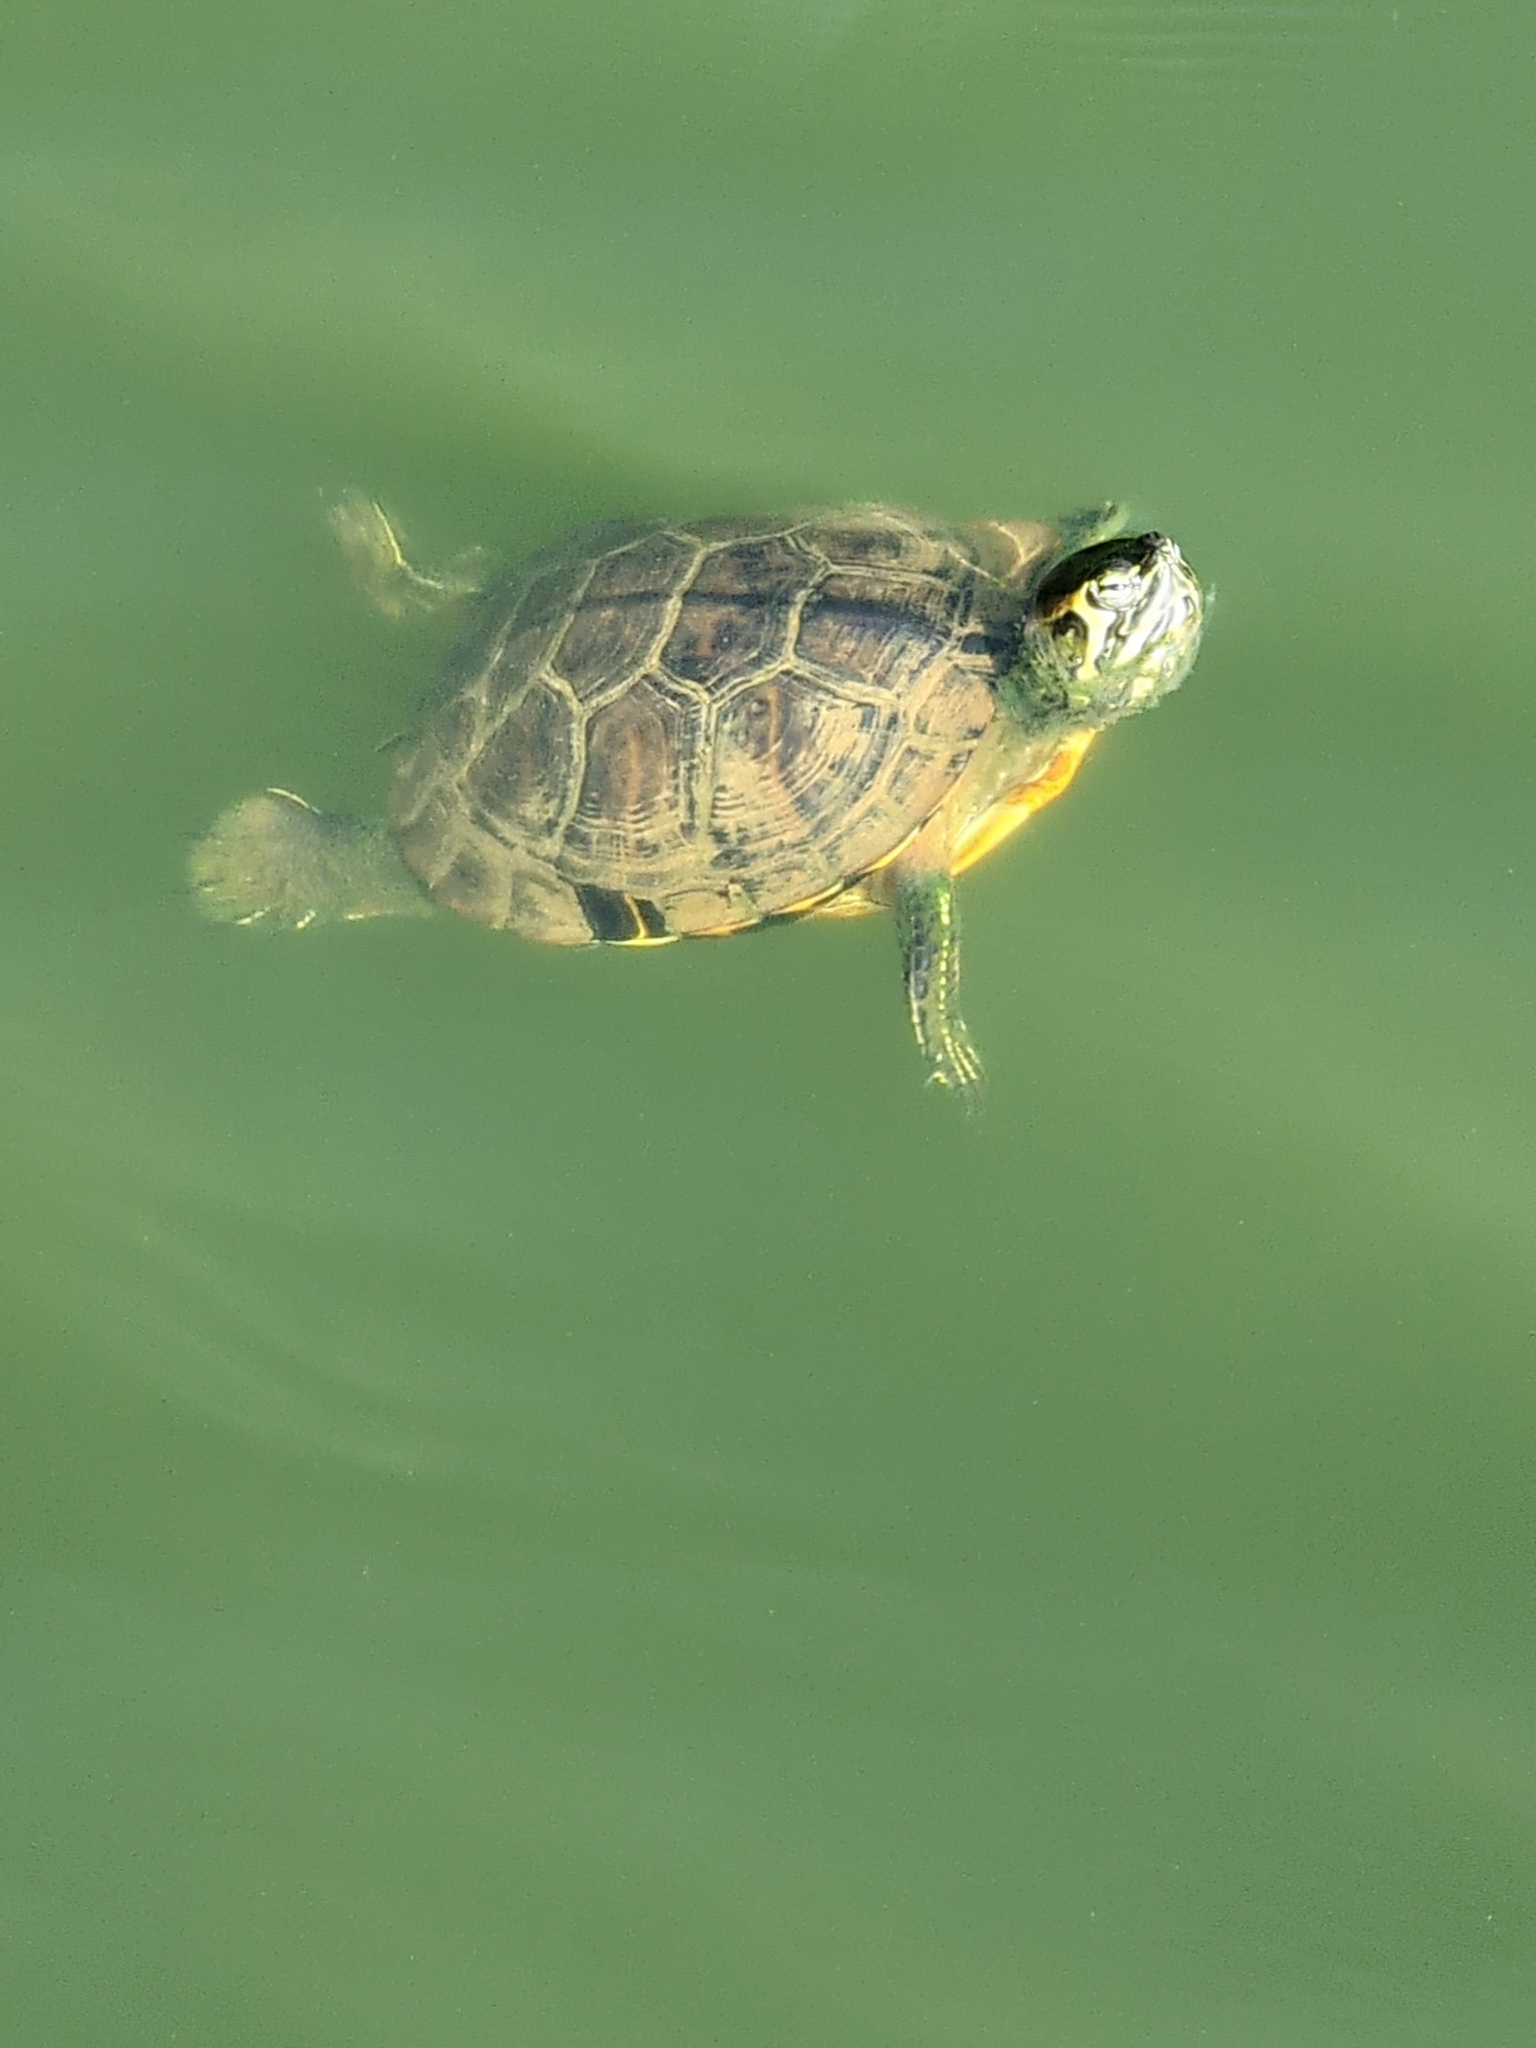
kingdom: Animalia
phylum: Chordata
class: Testudines
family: Emydidae
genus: Trachemys
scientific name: Trachemys scripta
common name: Slider
